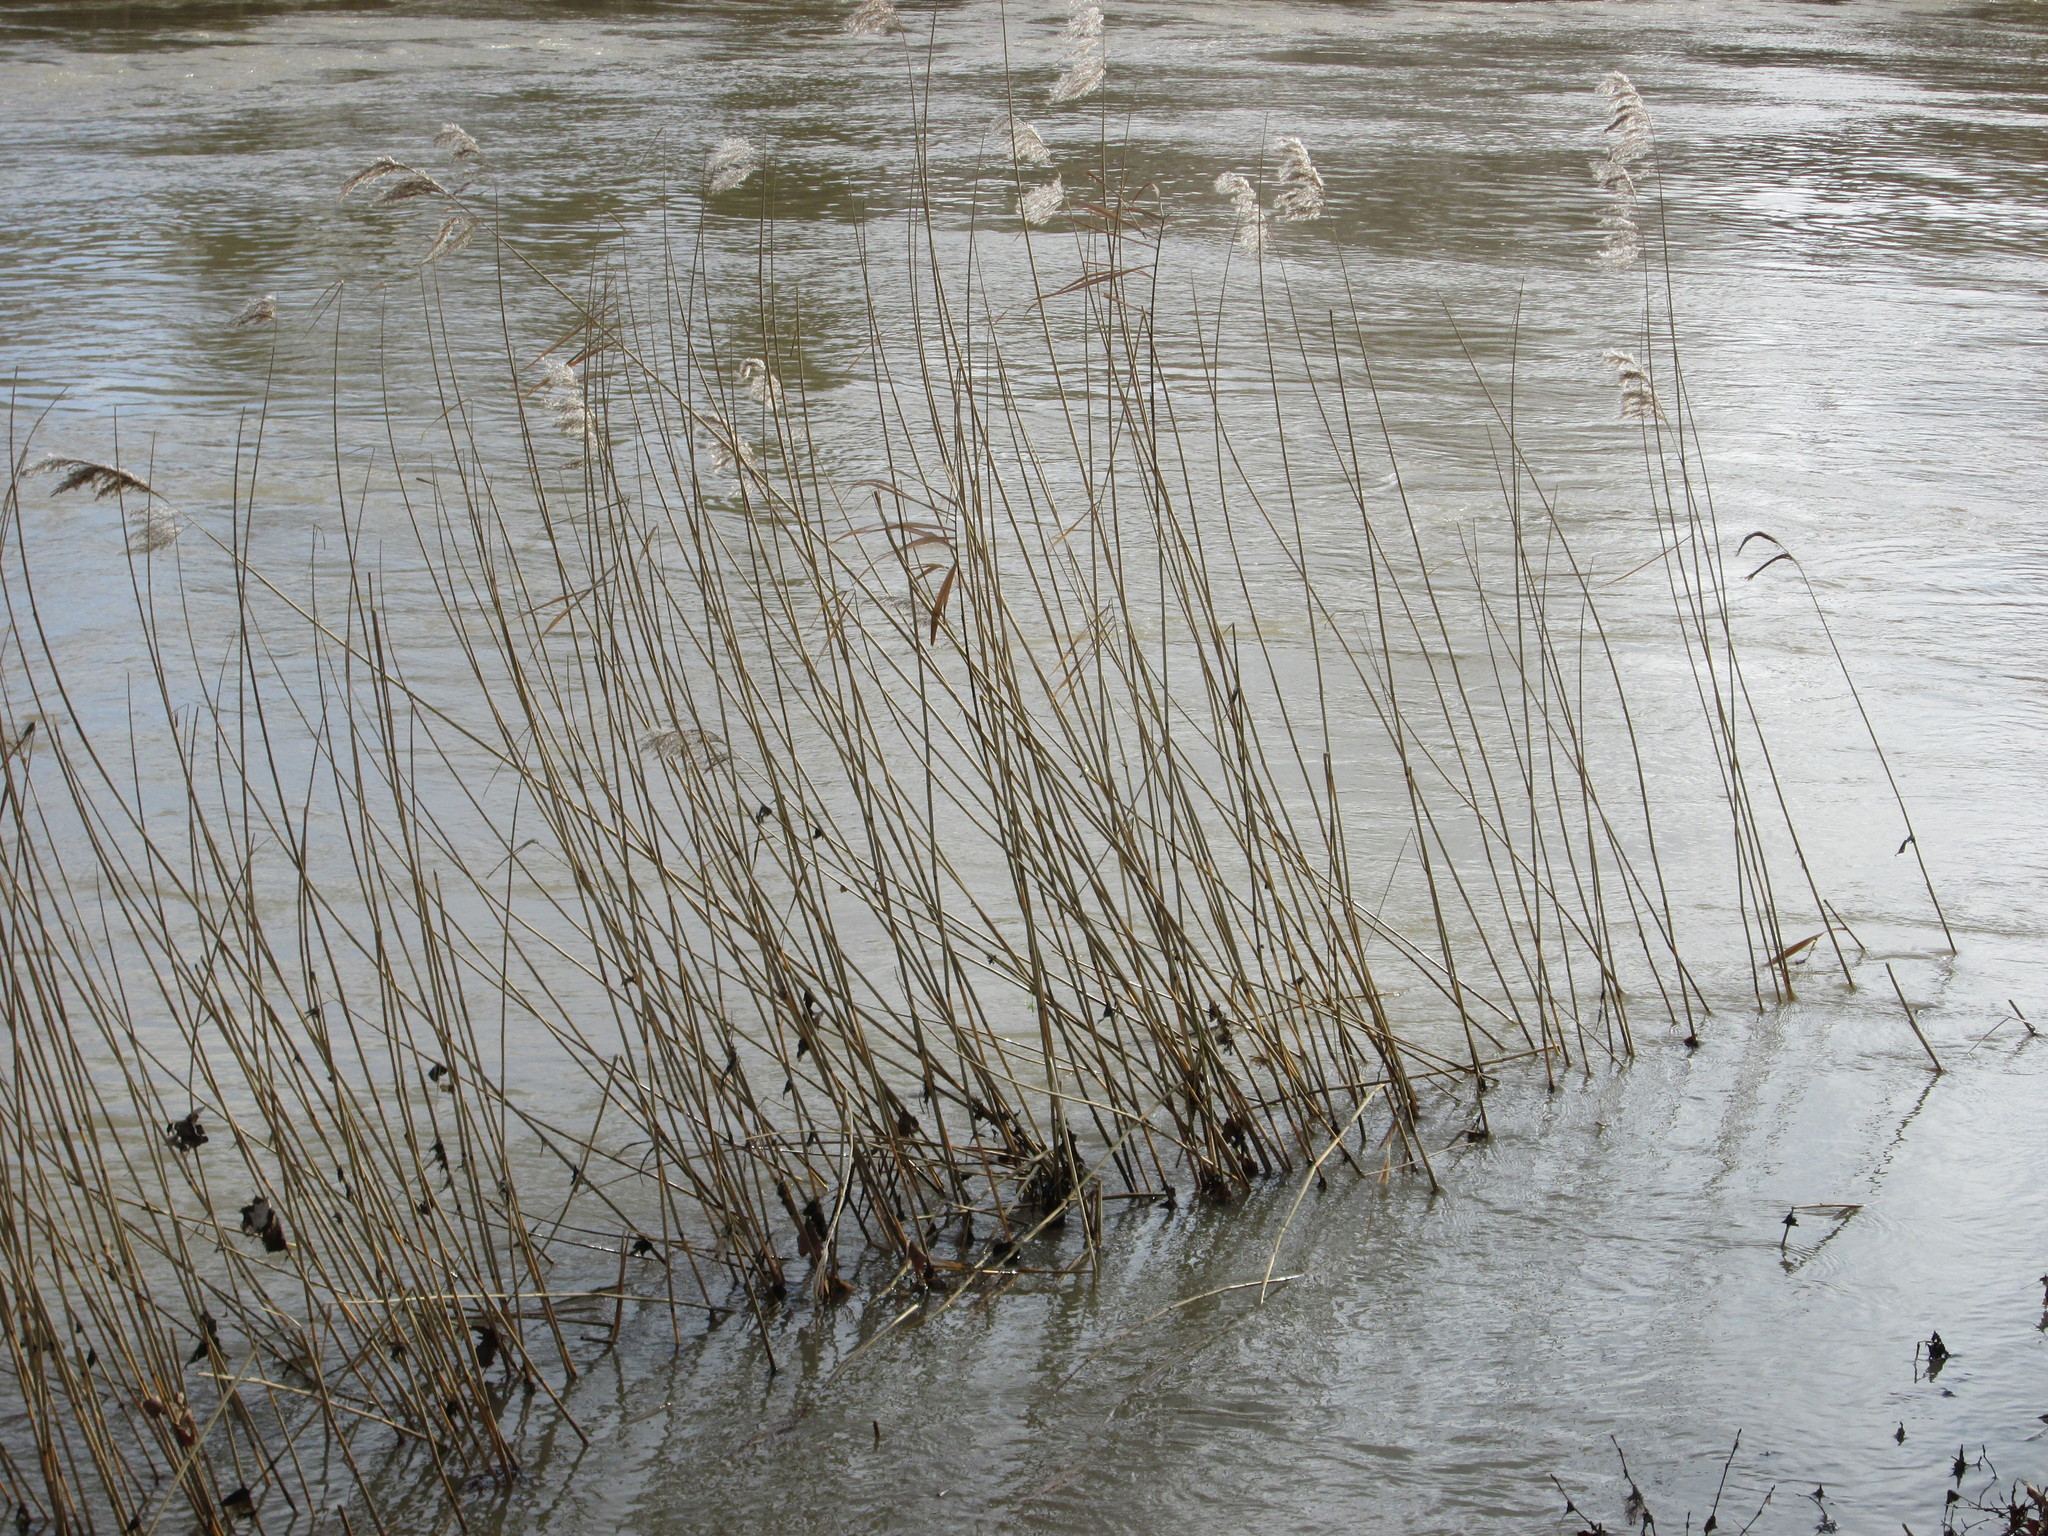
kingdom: Plantae
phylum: Tracheophyta
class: Liliopsida
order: Poales
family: Poaceae
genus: Phragmites
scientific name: Phragmites australis
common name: Common reed
